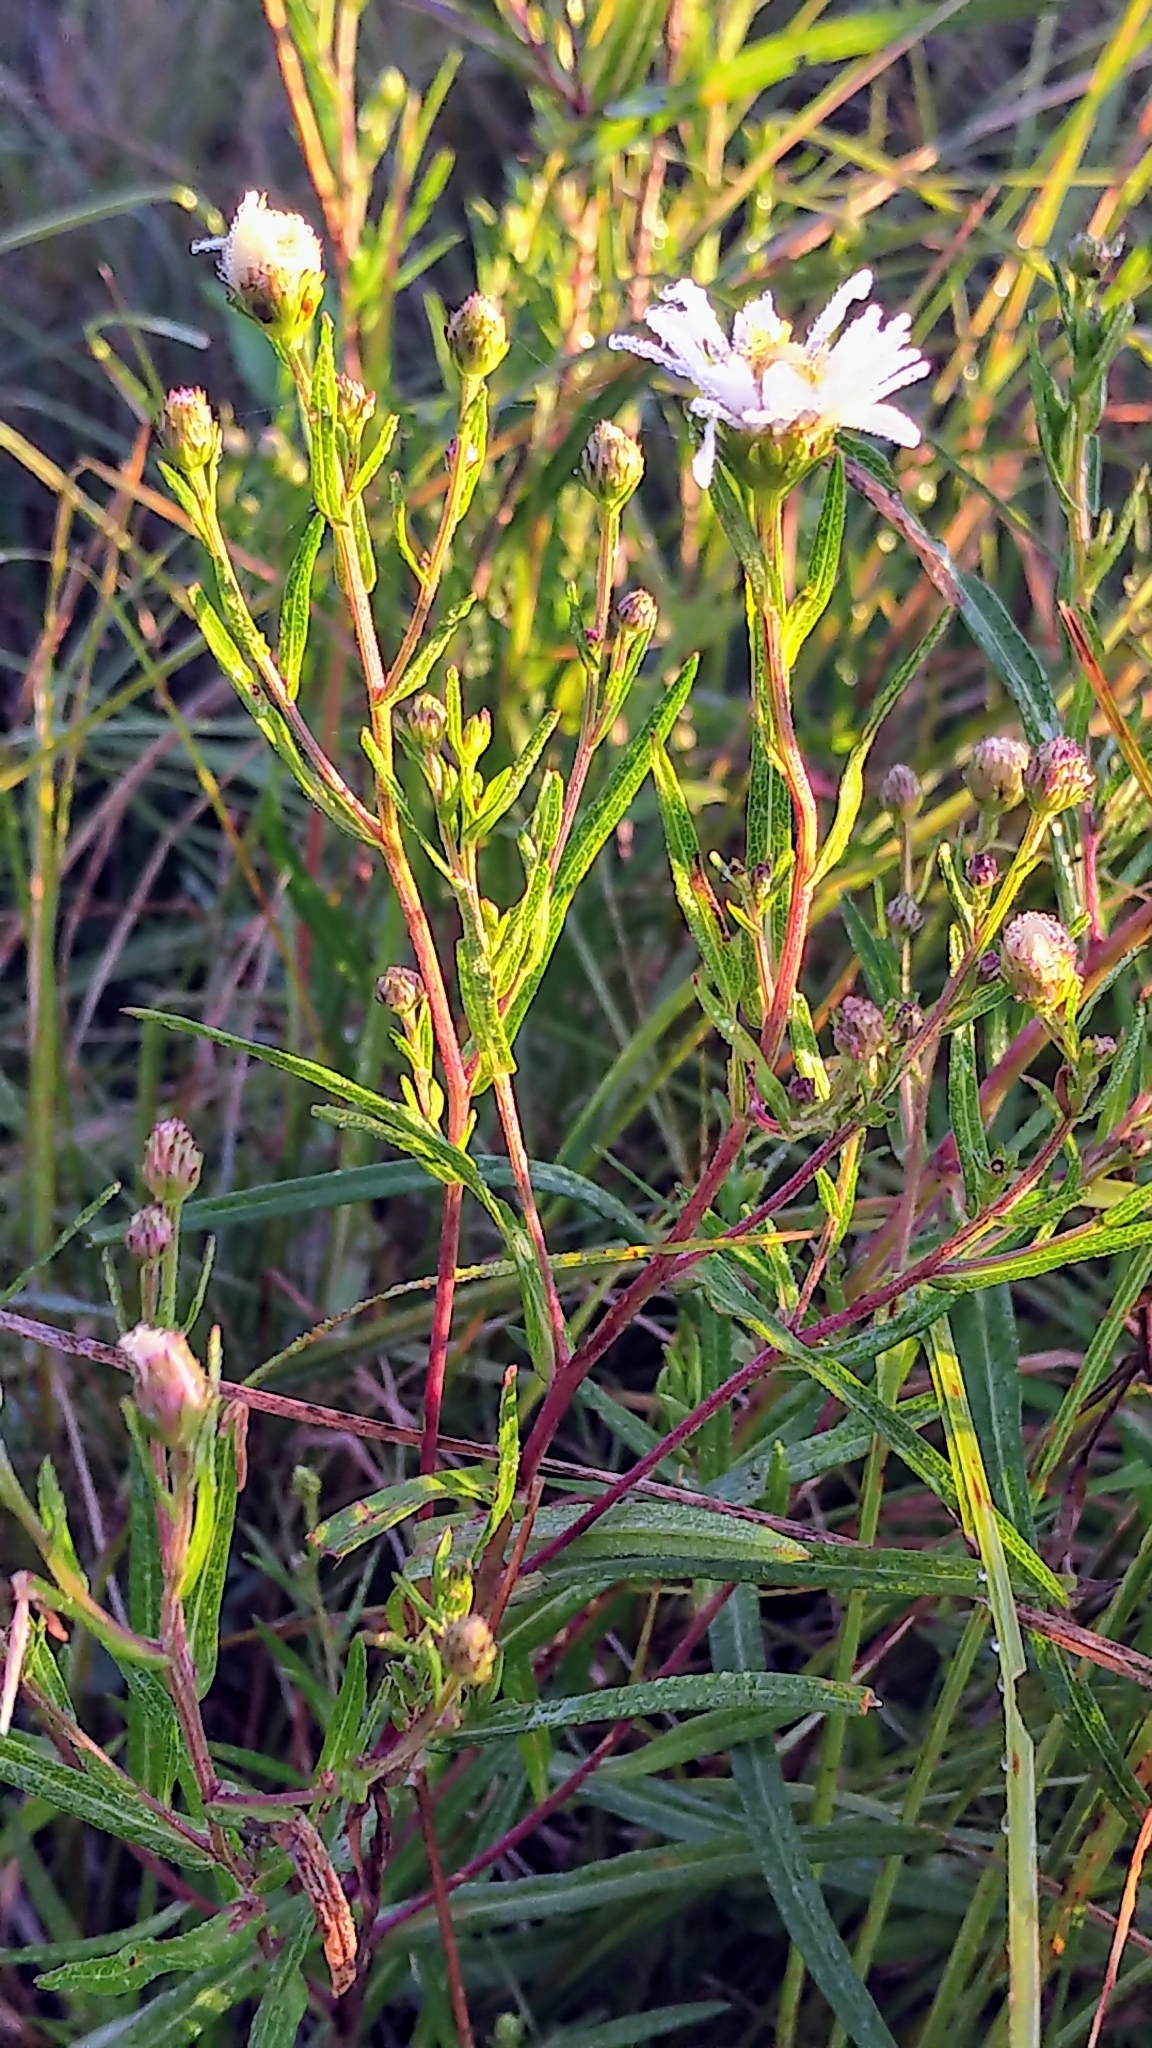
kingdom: Plantae
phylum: Tracheophyta
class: Magnoliopsida
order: Asterales
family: Asteraceae
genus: Symphyotrichum
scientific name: Symphyotrichum lanceolatum
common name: Panicled aster
